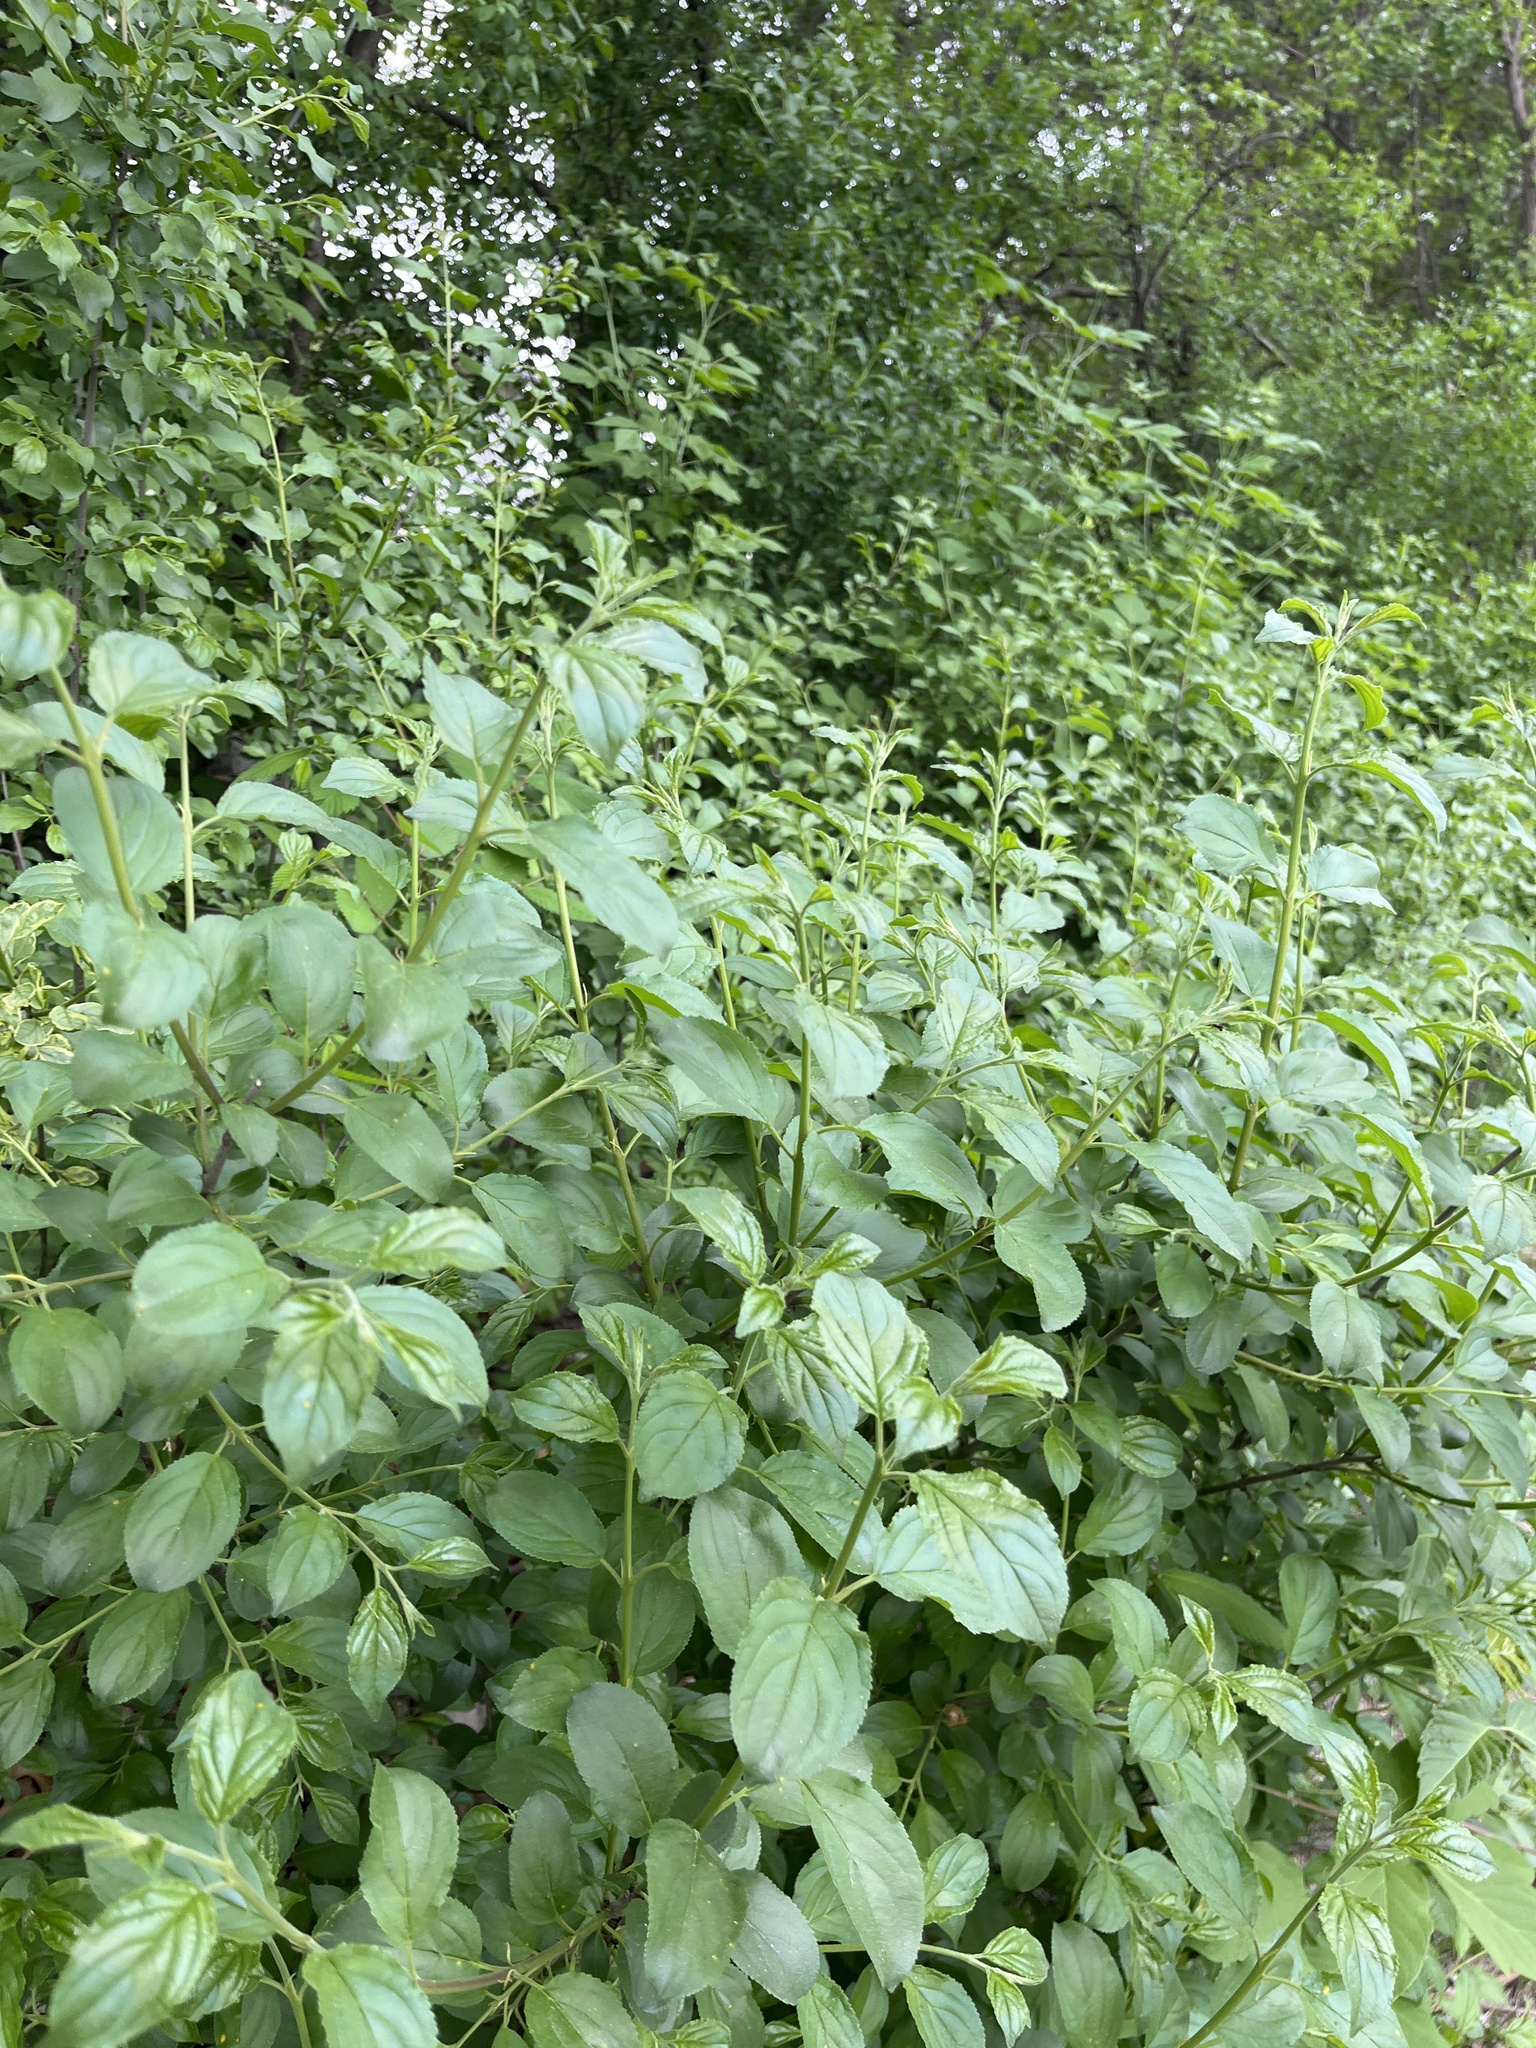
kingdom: Plantae
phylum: Tracheophyta
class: Magnoliopsida
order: Rosales
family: Rhamnaceae
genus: Rhamnus
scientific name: Rhamnus cathartica
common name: Common buckthorn
